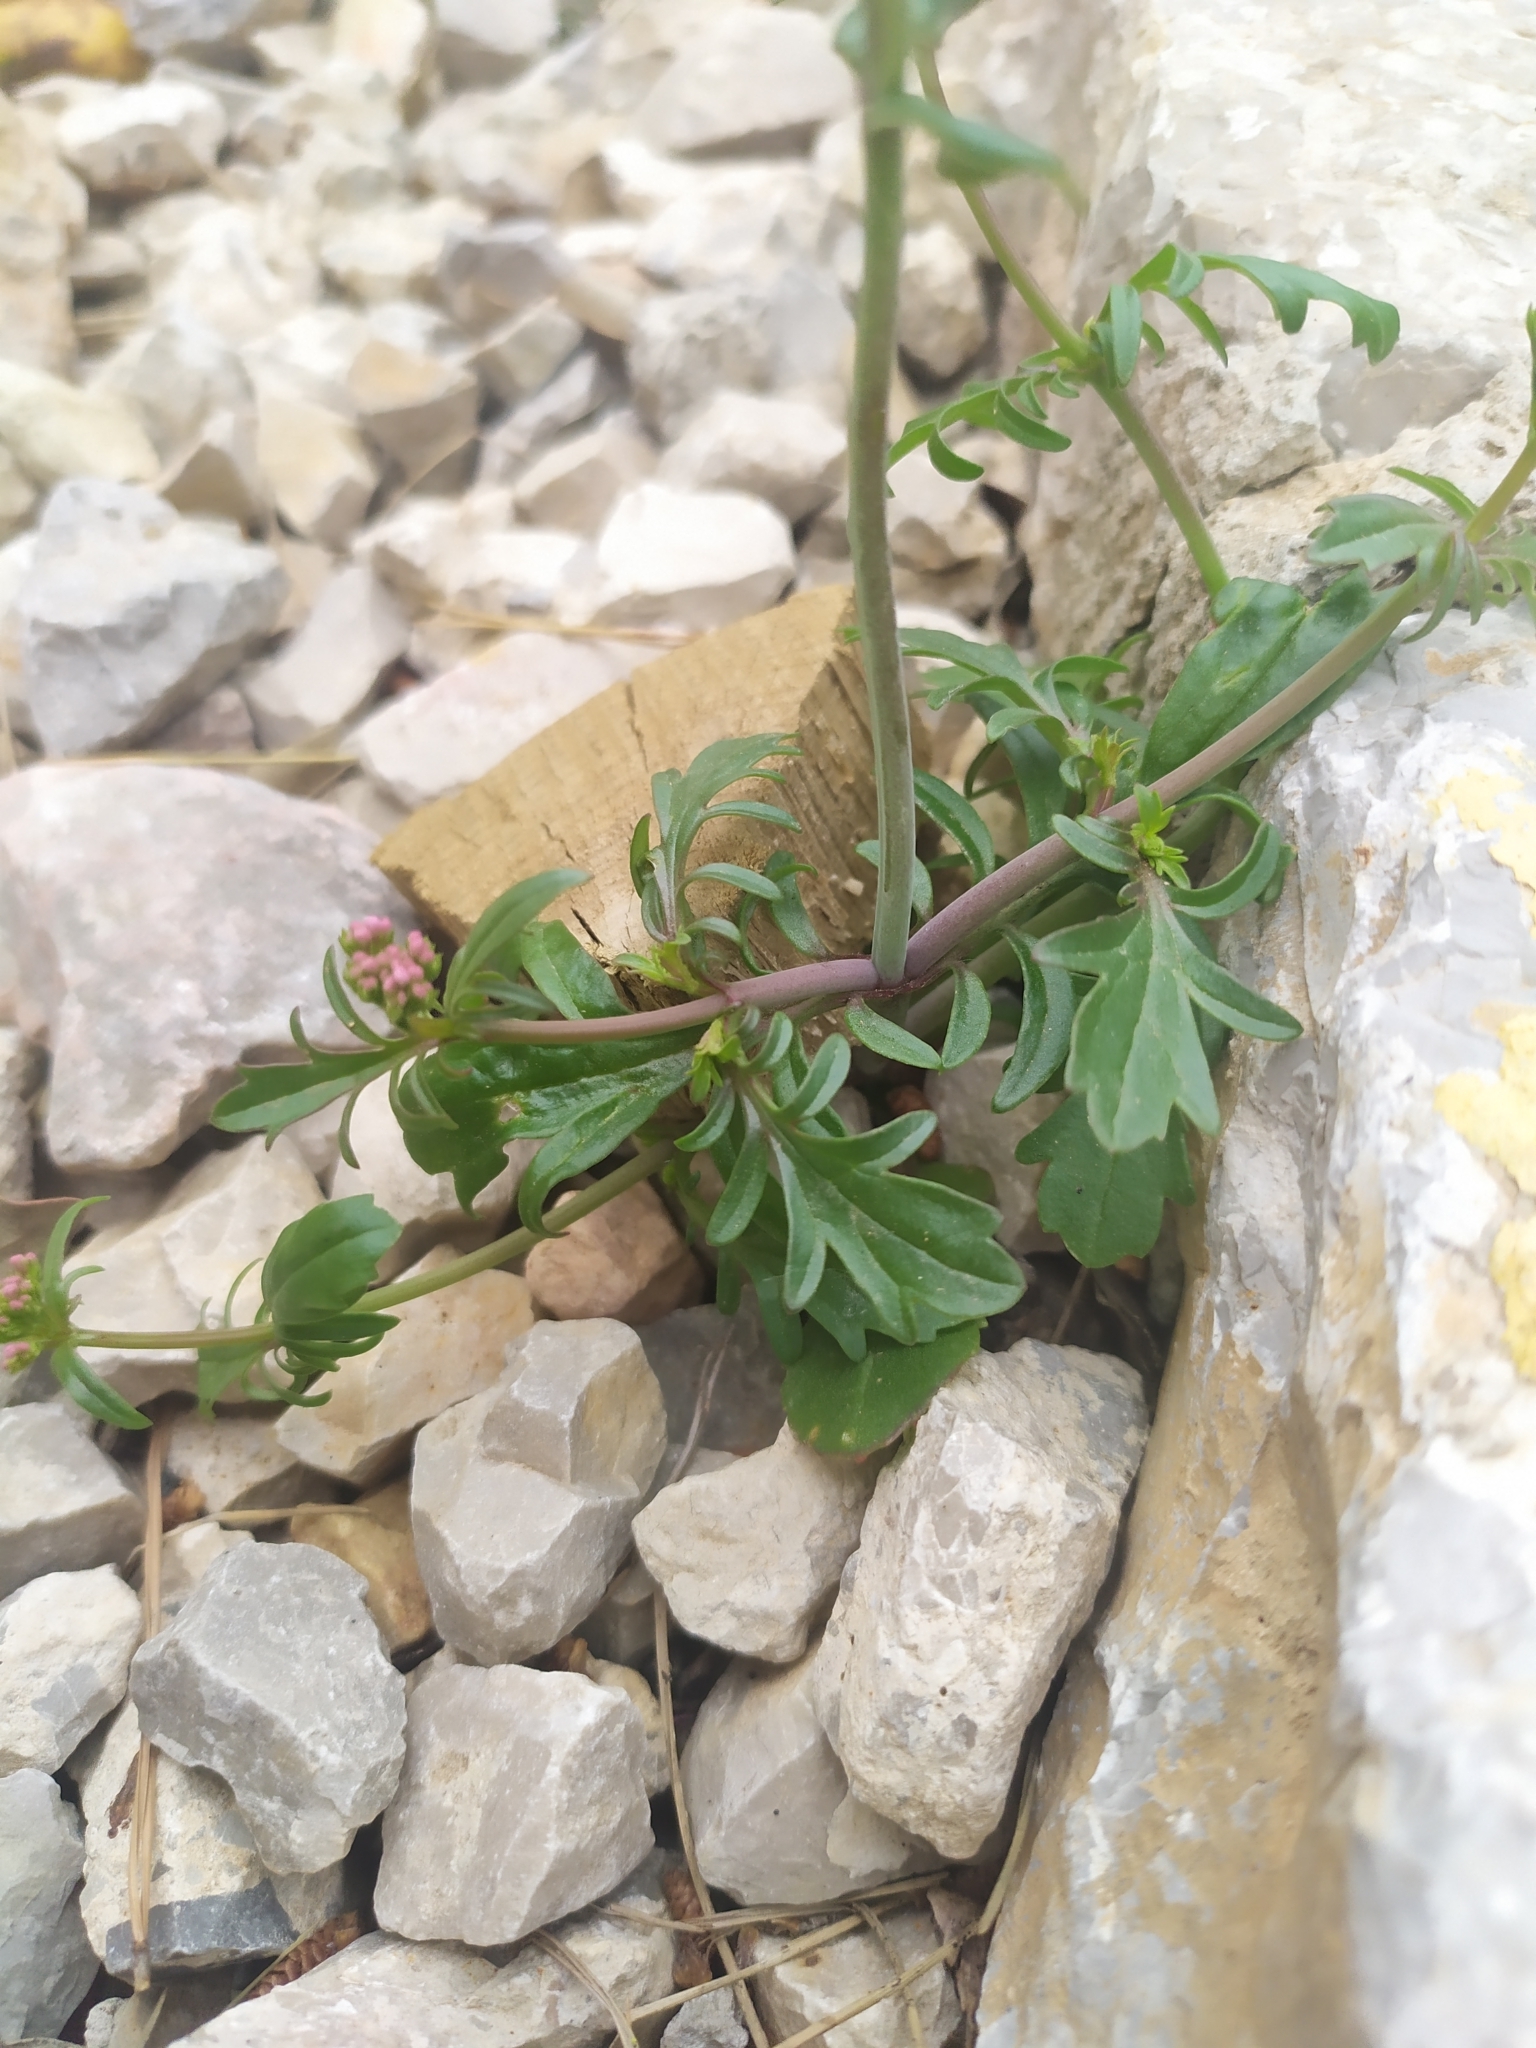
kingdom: Plantae
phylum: Tracheophyta
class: Magnoliopsida
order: Dipsacales
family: Caprifoliaceae
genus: Centranthus
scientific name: Centranthus calcitrapae
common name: Annual valerian
